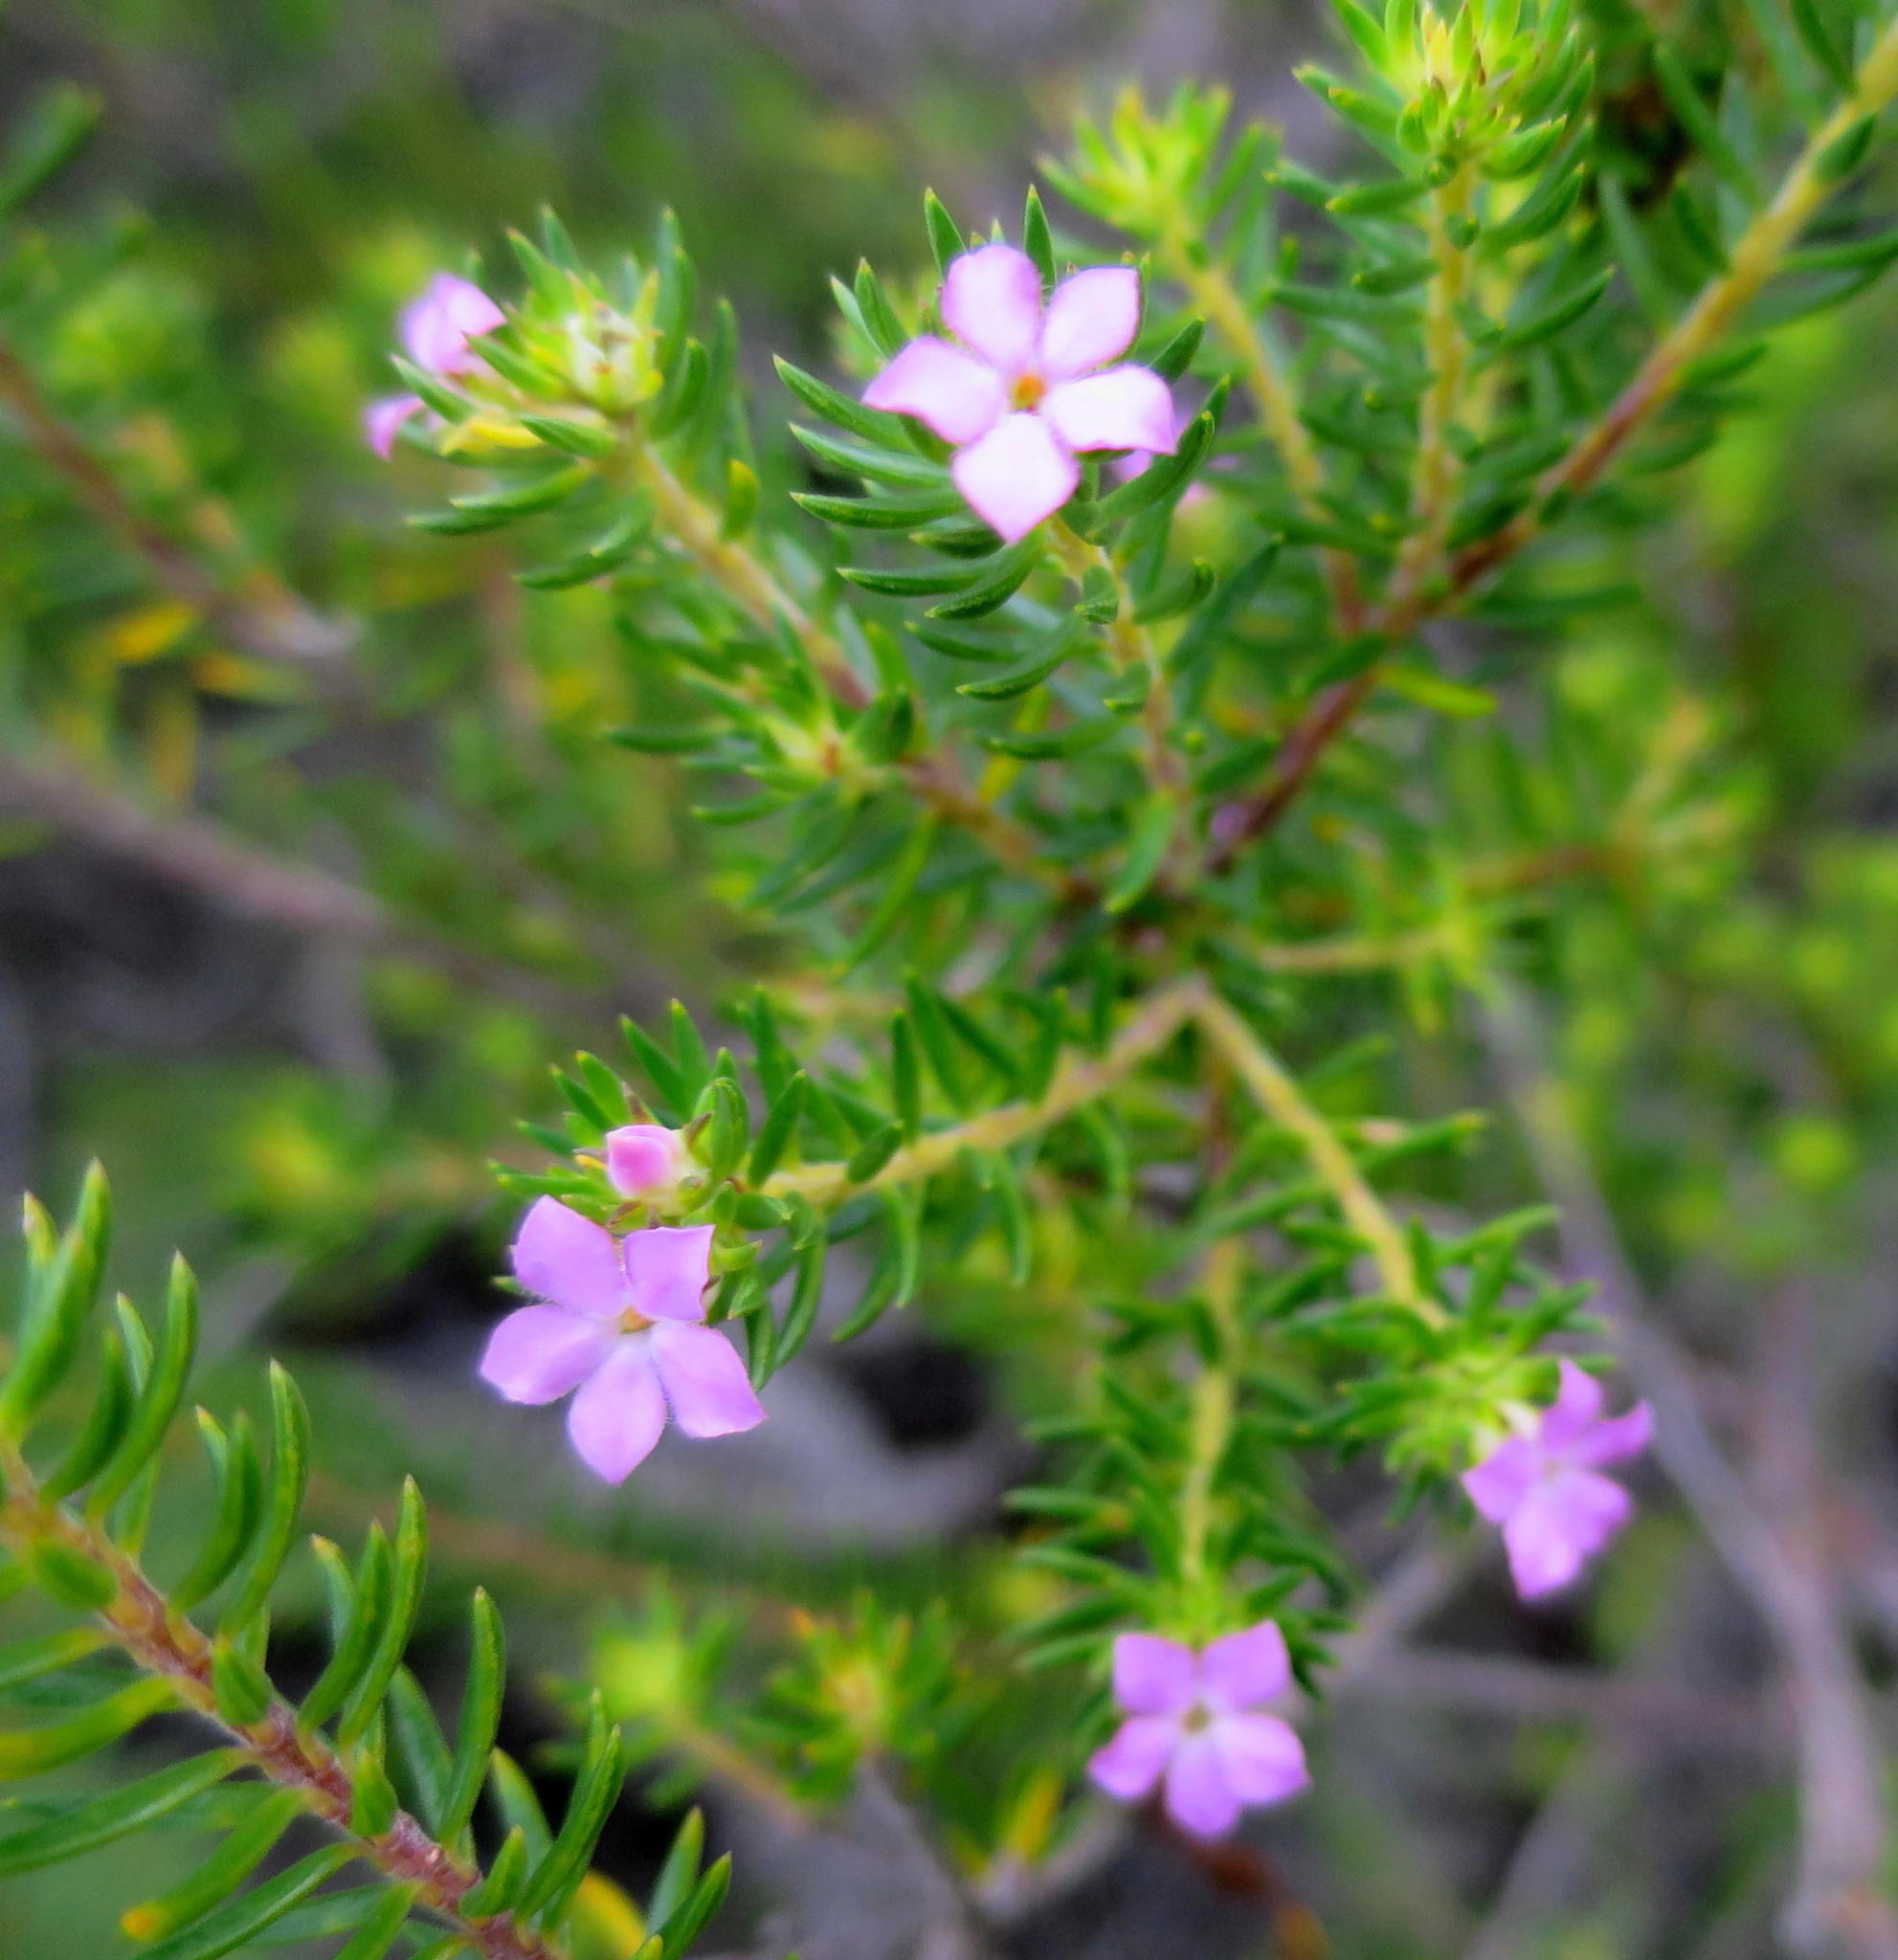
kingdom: Plantae
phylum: Tracheophyta
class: Magnoliopsida
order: Sapindales
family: Rutaceae
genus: Acmadenia
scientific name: Acmadenia alternifolia
